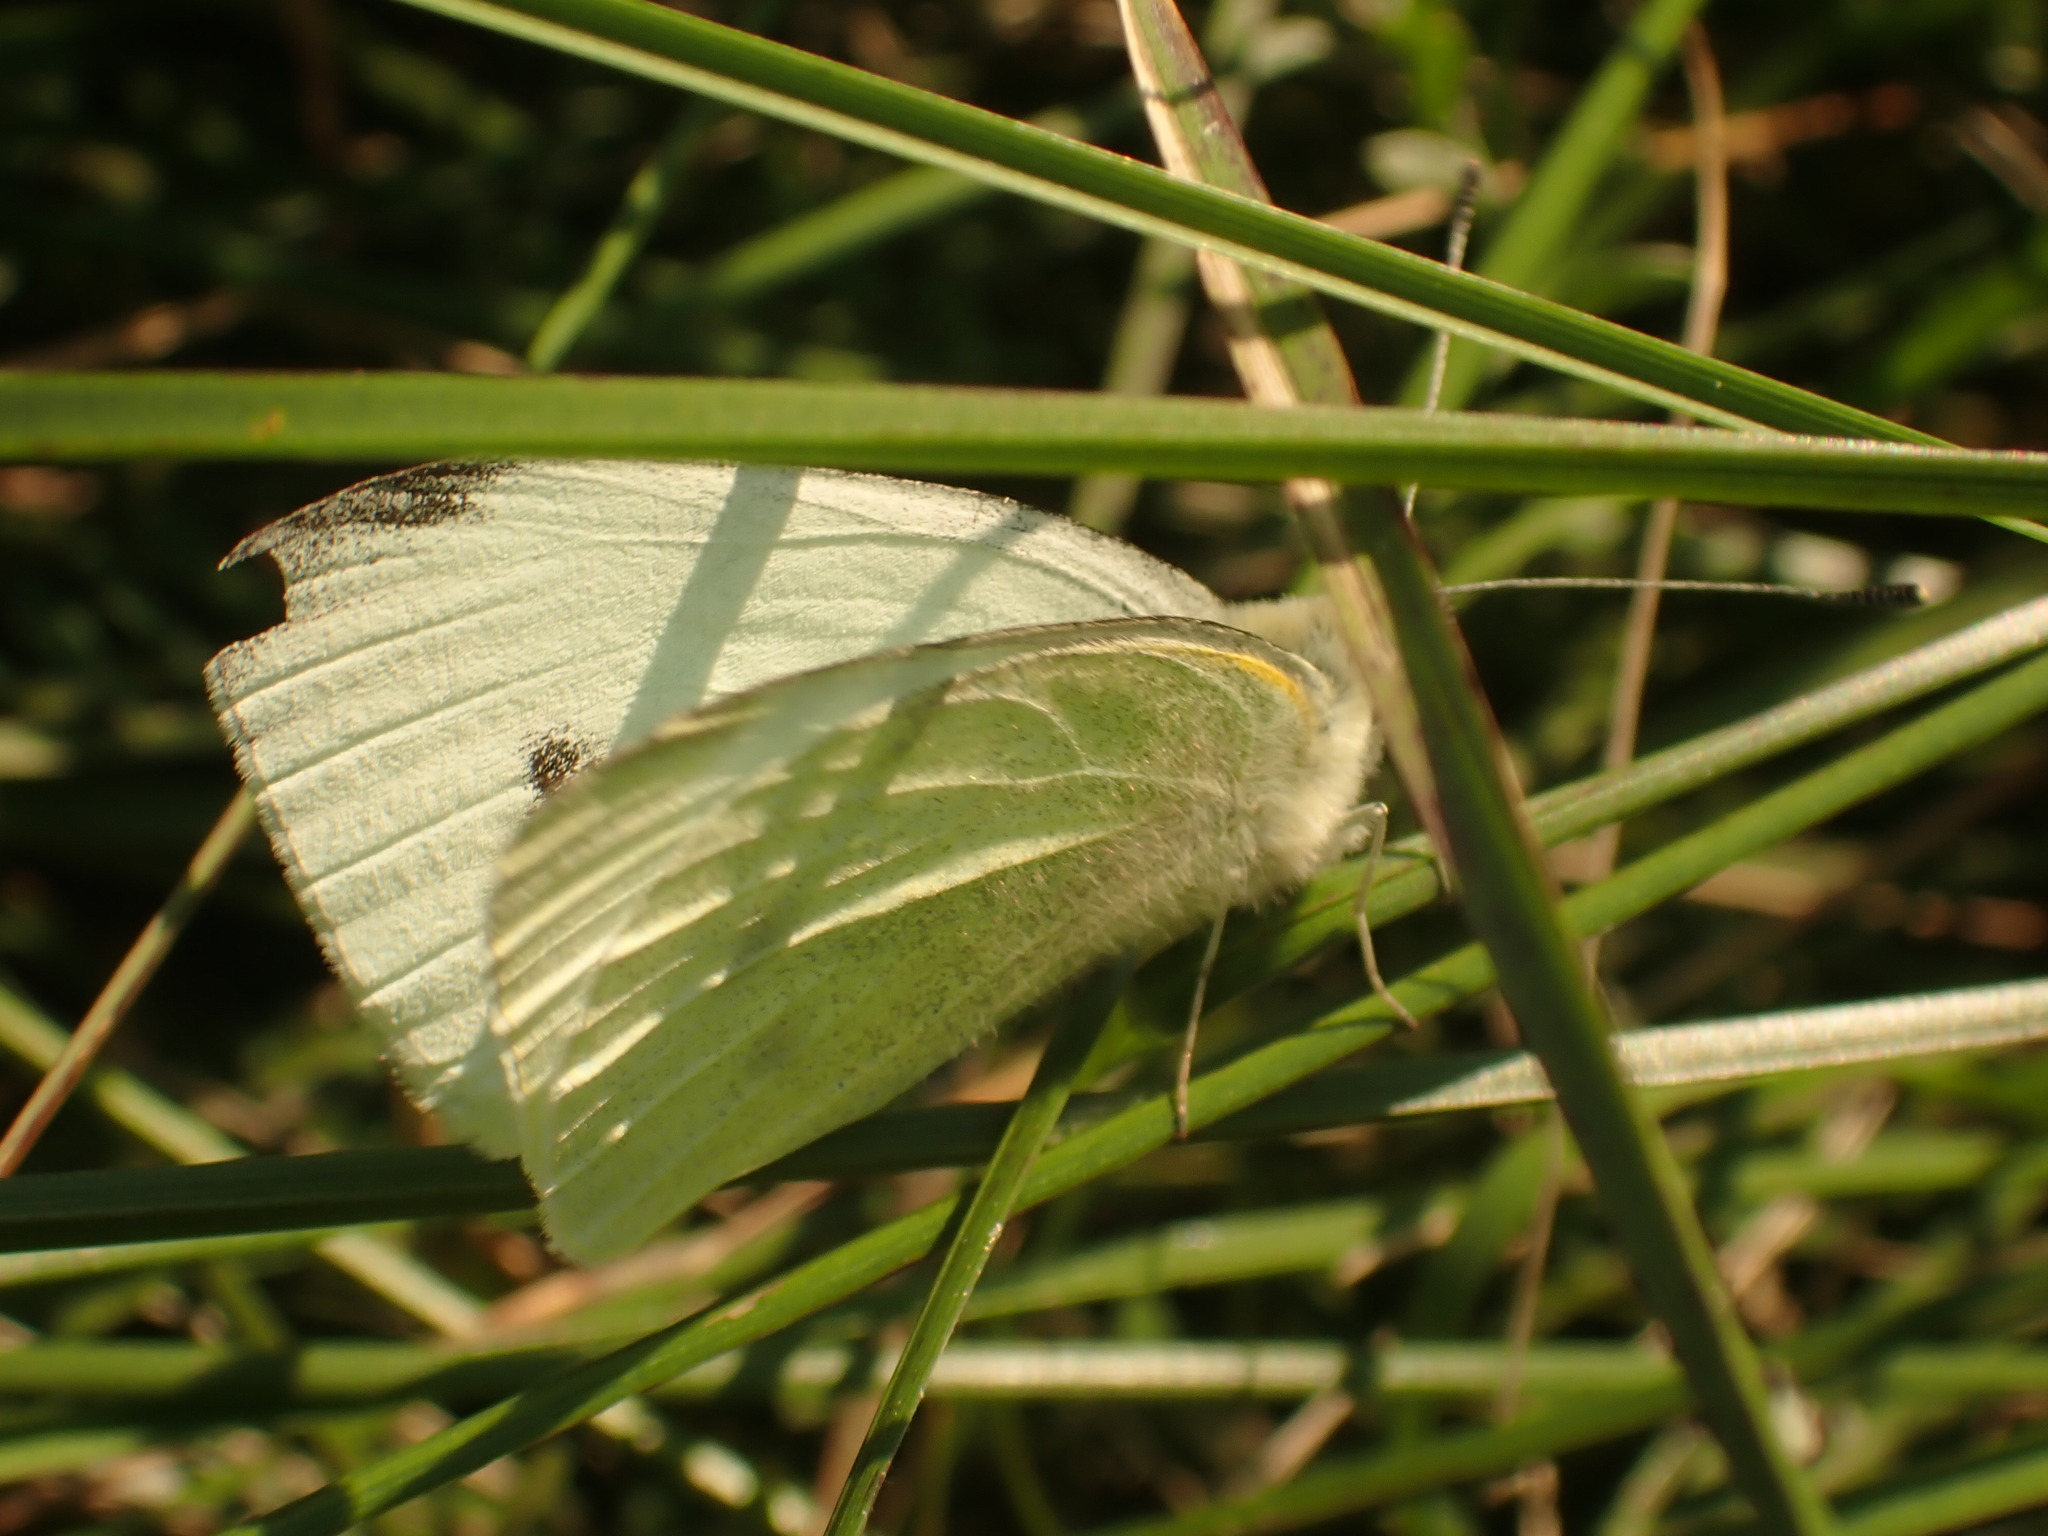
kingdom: Animalia
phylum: Arthropoda
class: Insecta
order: Lepidoptera
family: Pieridae
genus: Pieris
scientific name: Pieris rapae
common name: Small white
